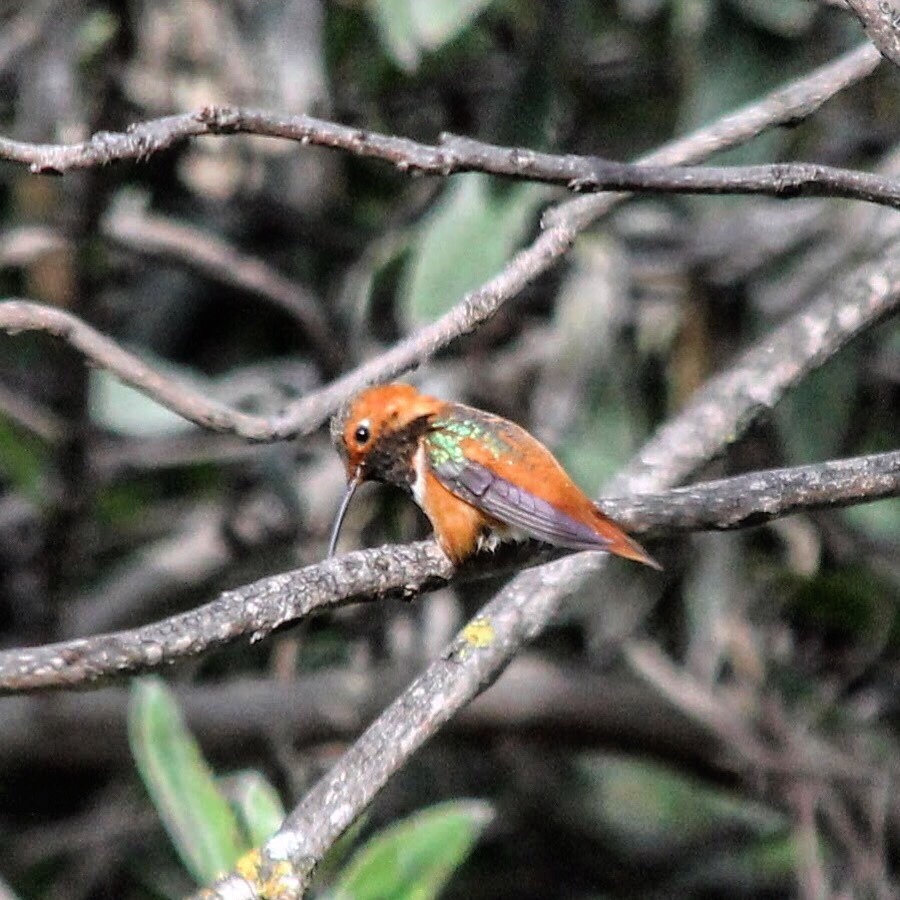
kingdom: Animalia
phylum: Chordata
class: Aves
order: Apodiformes
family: Trochilidae
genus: Selasphorus
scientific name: Selasphorus sasin
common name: Allen's hummingbird
